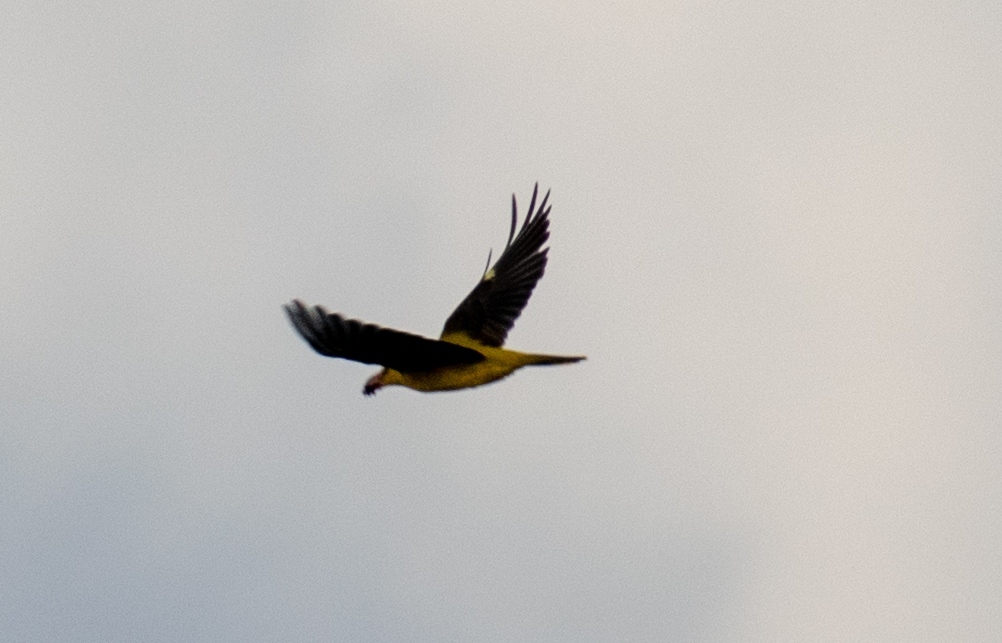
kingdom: Animalia
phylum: Chordata
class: Aves
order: Passeriformes
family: Oriolidae
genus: Oriolus
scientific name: Oriolus oriolus
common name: Eurasian golden oriole
